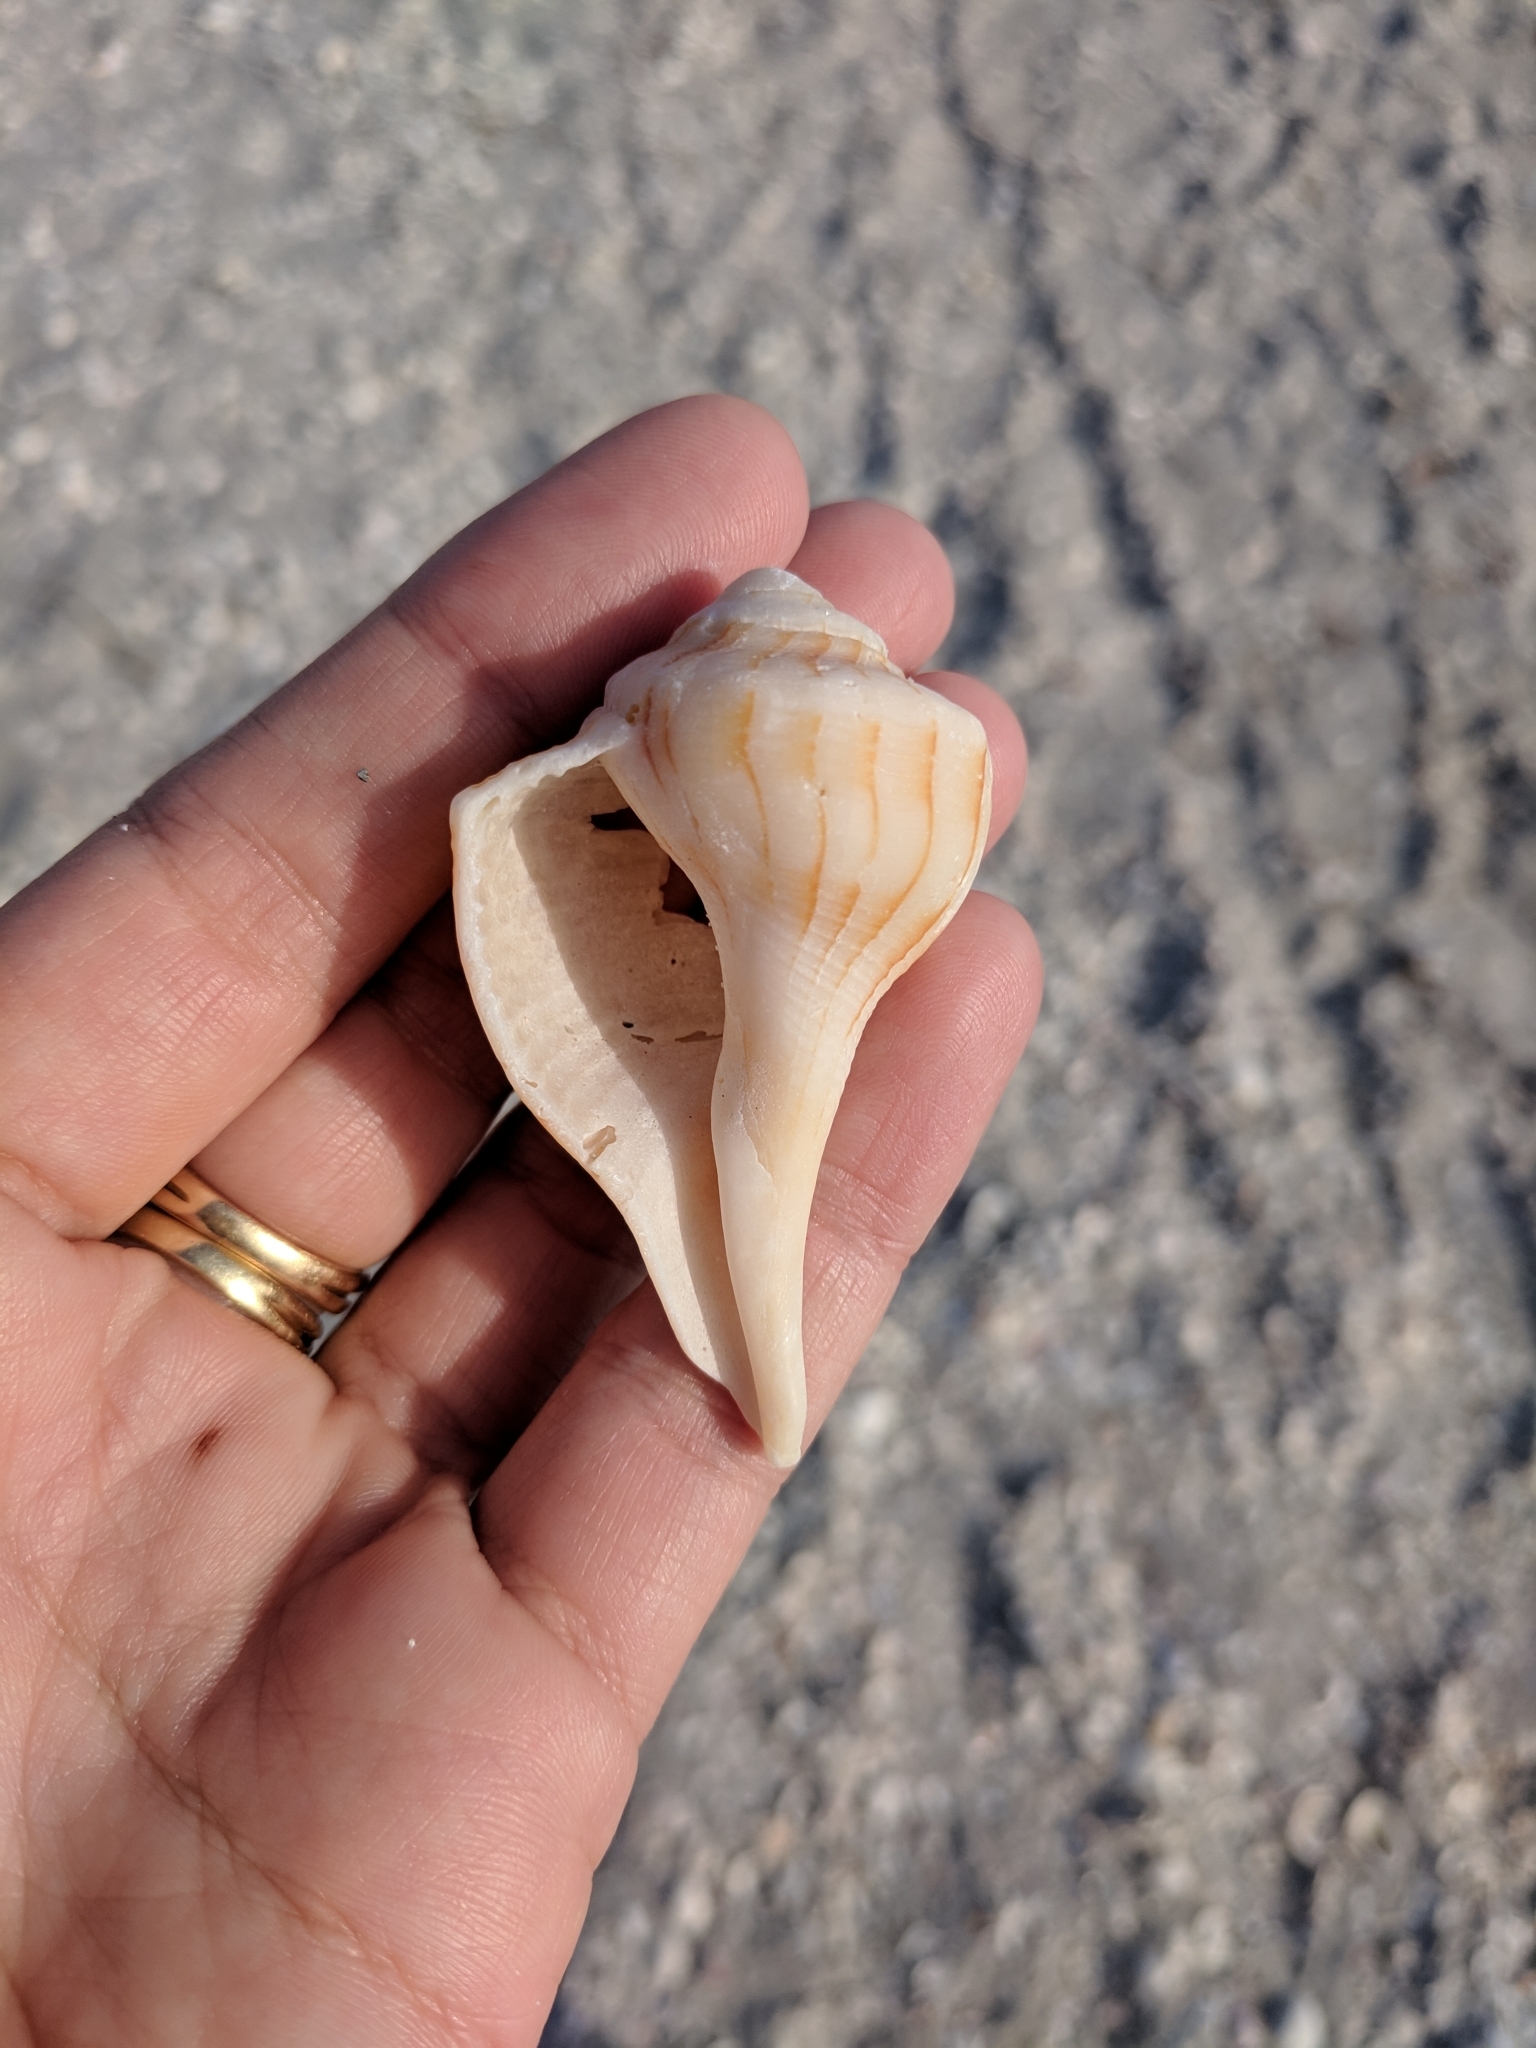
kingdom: Animalia
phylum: Mollusca
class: Gastropoda
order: Neogastropoda
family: Busyconidae
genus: Sinistrofulgur
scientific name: Sinistrofulgur sinistrum
